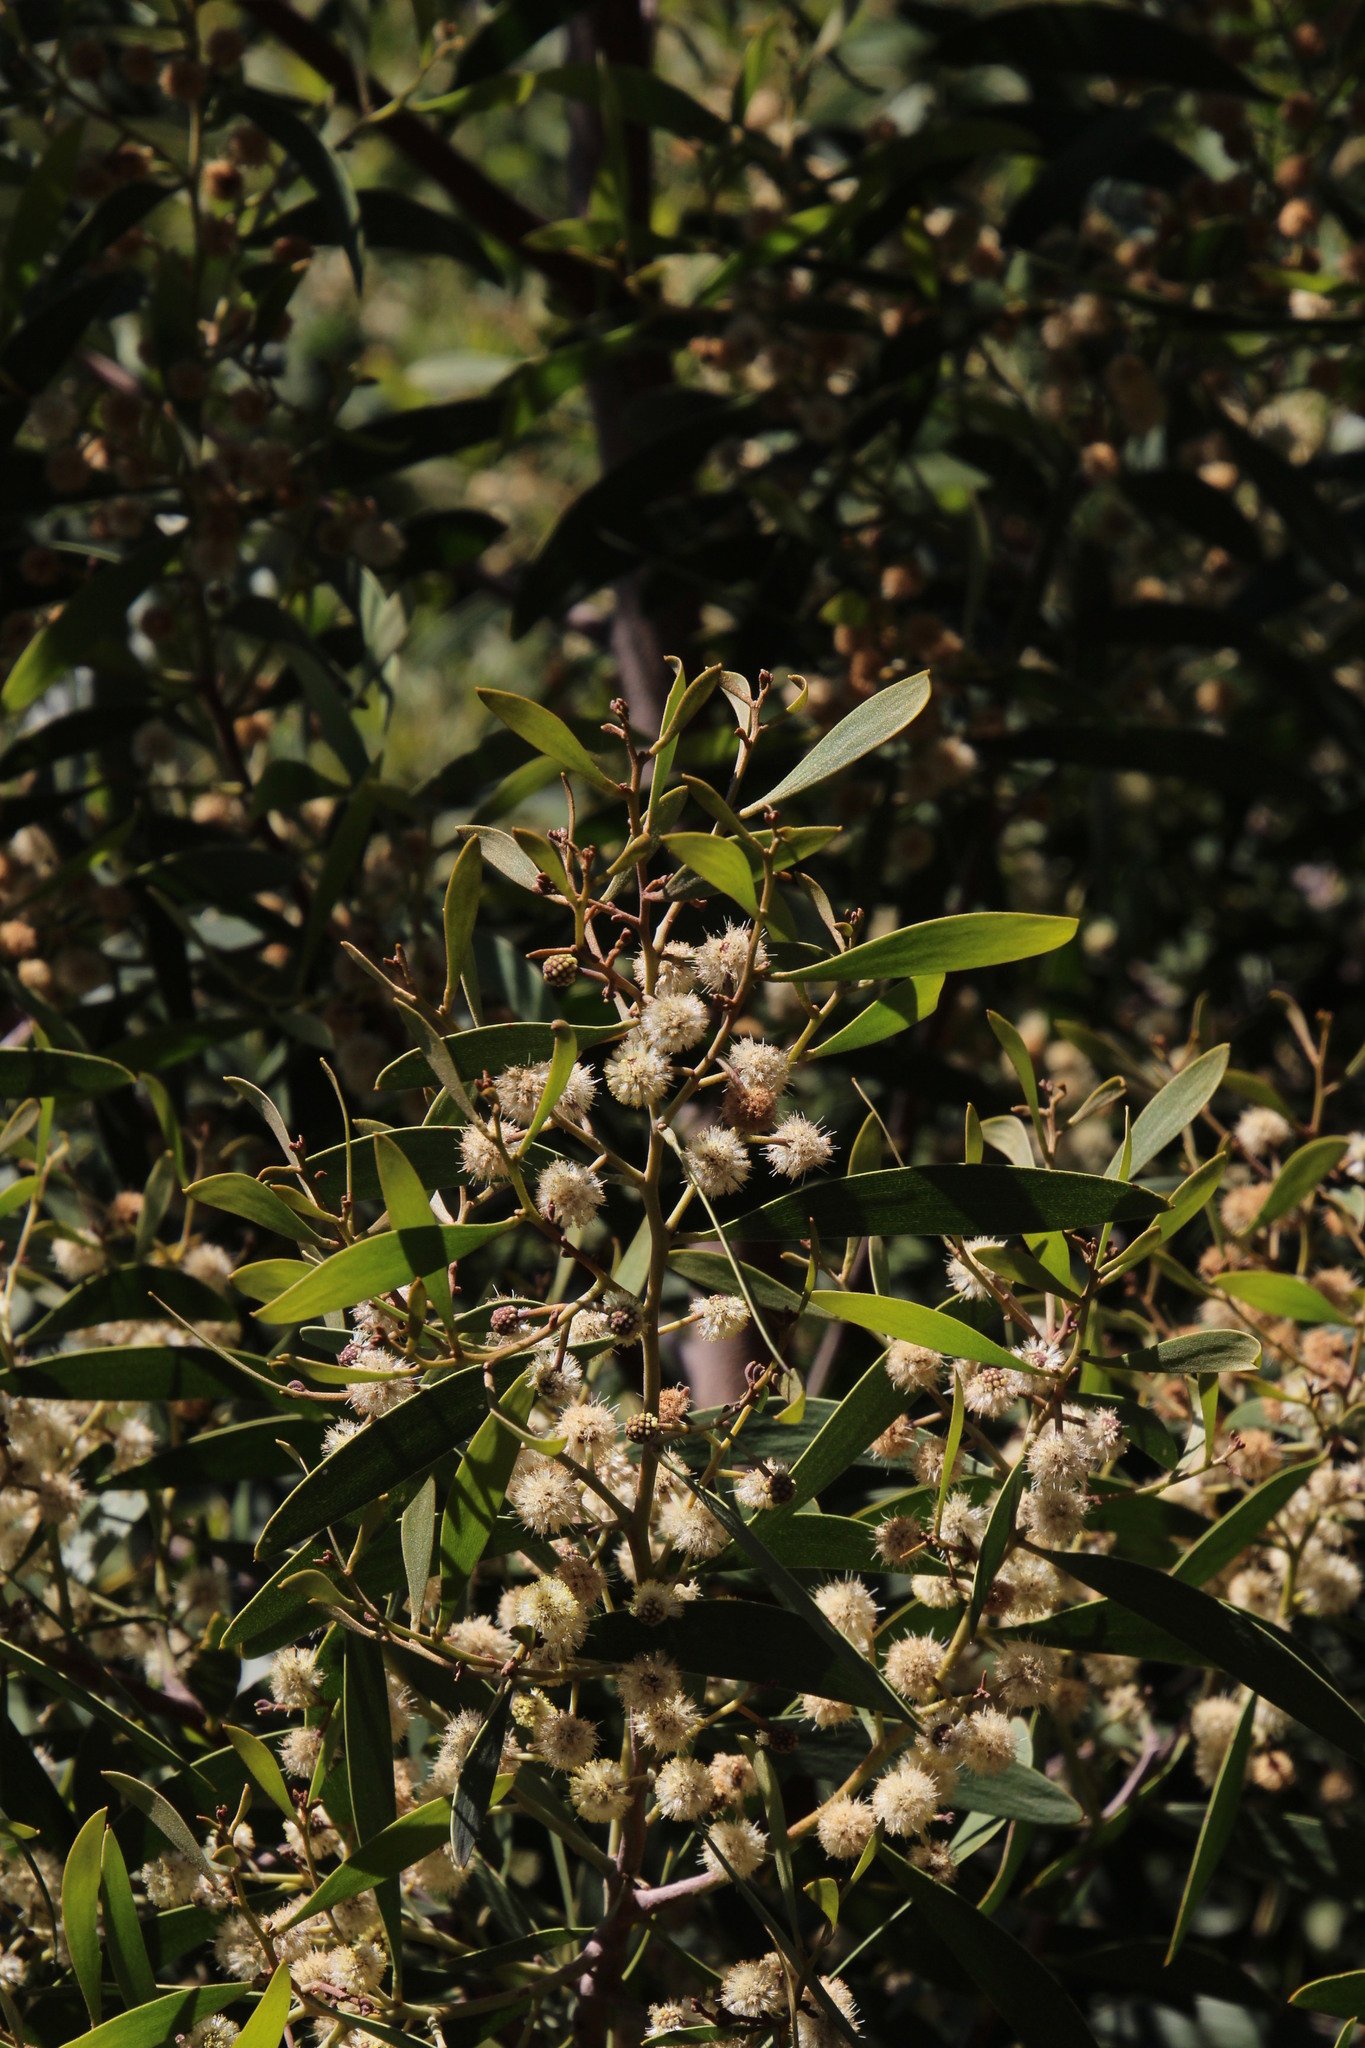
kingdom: Plantae
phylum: Tracheophyta
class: Magnoliopsida
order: Fabales
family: Fabaceae
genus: Acacia
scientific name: Acacia melanoxylon
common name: Blackwood
